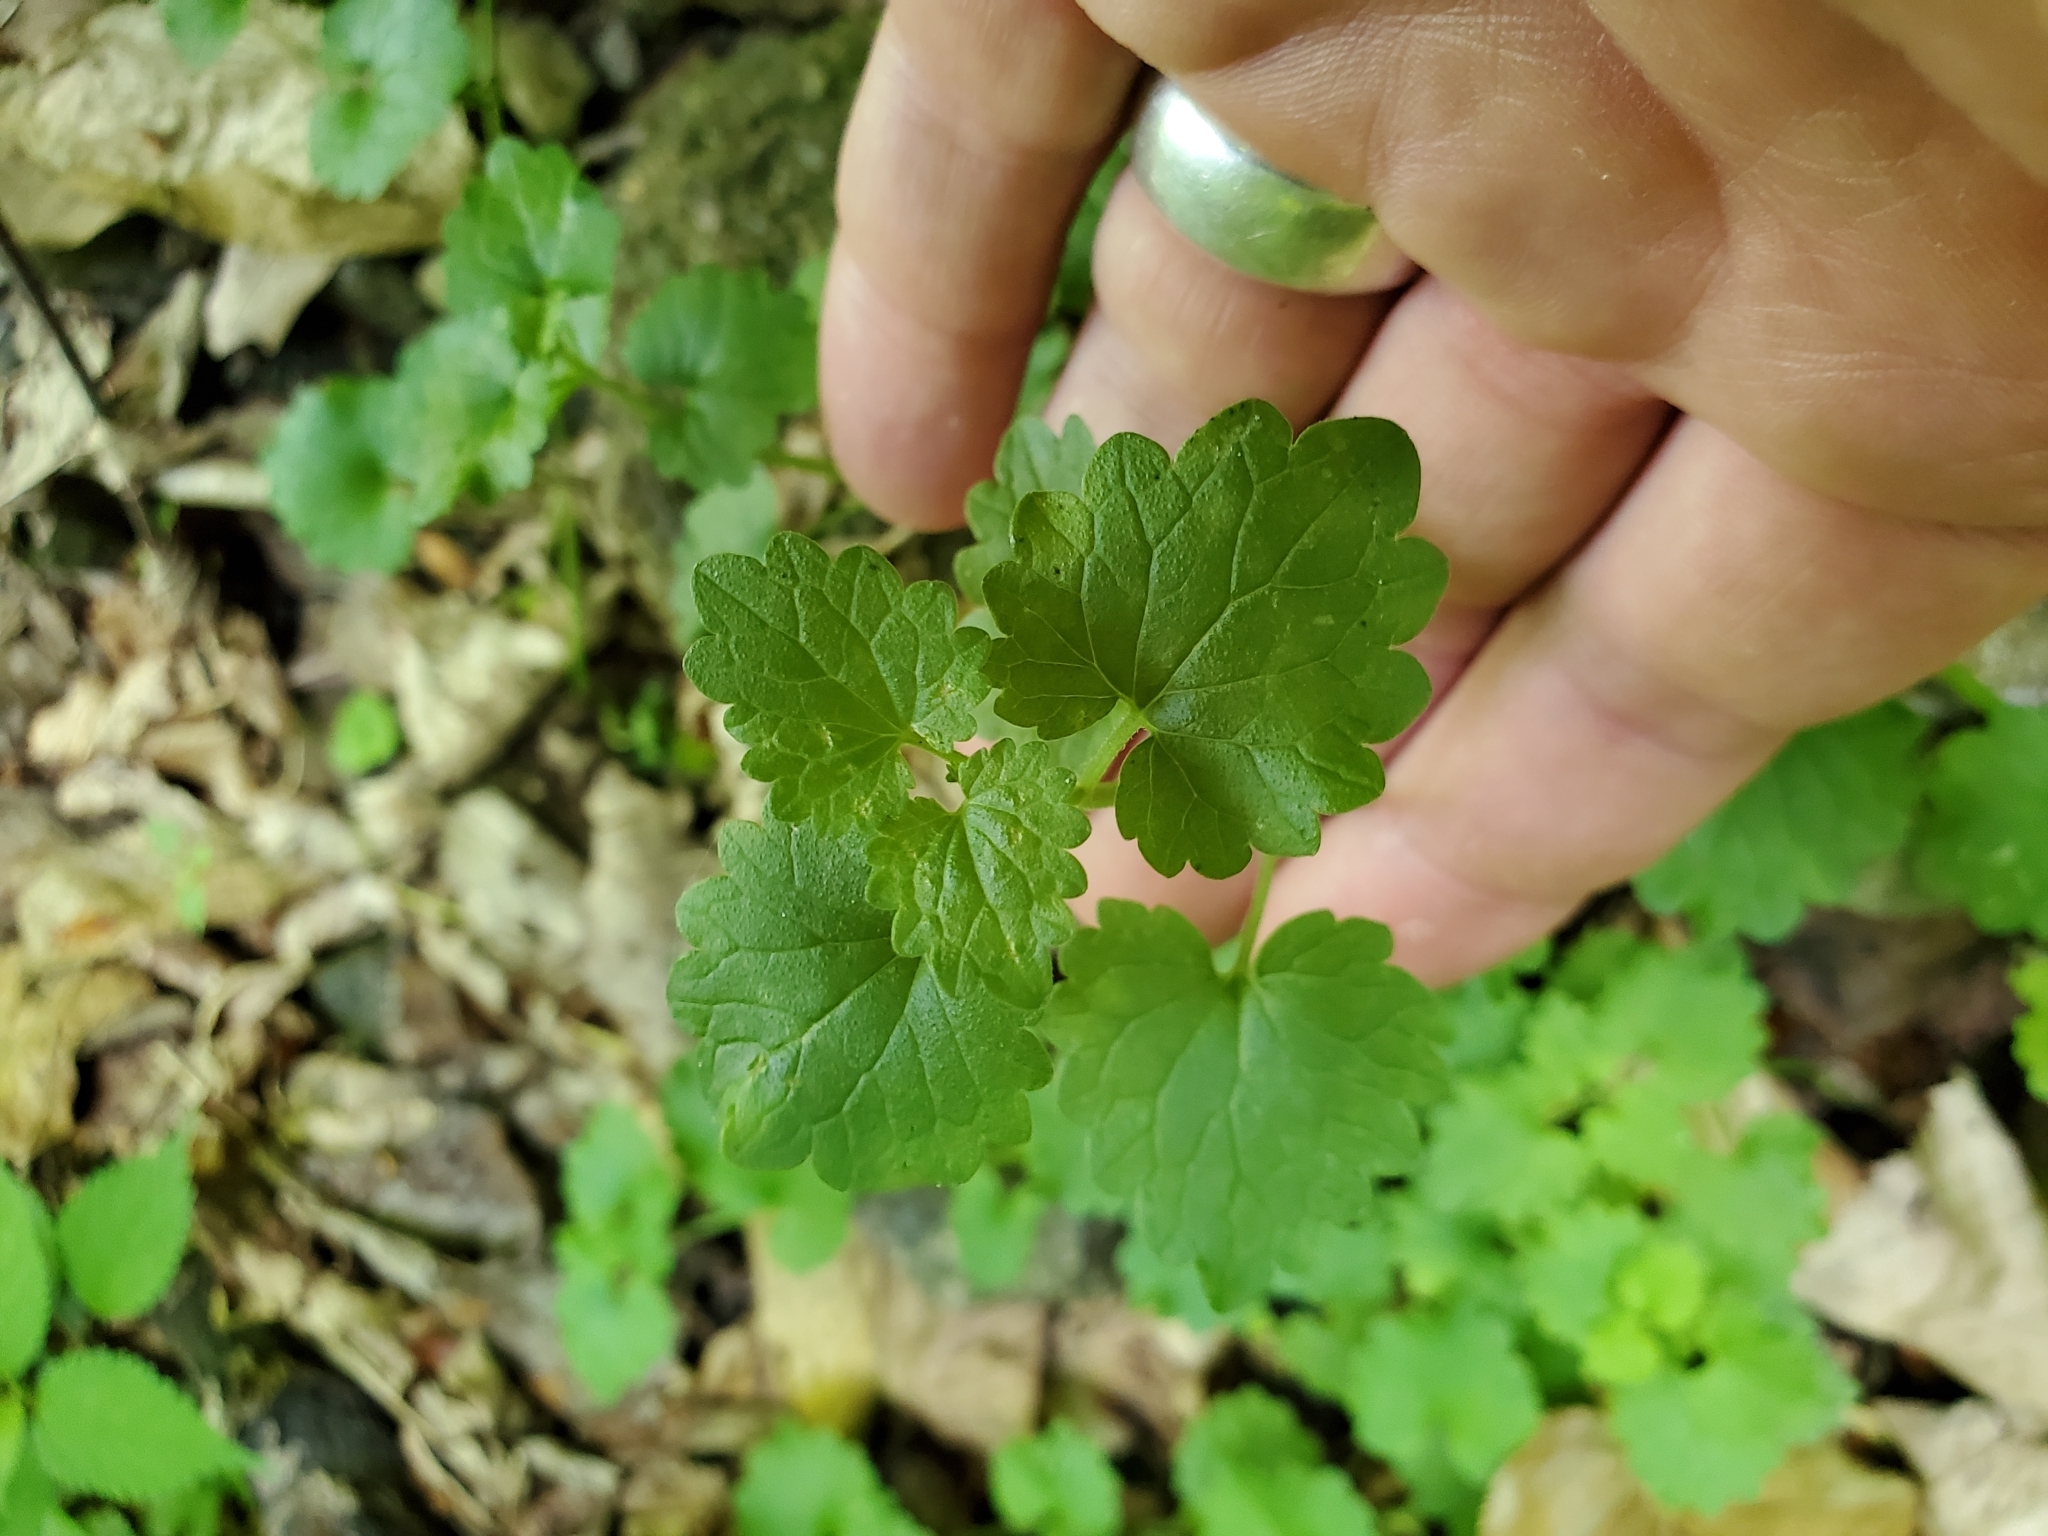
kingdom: Plantae
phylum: Tracheophyta
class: Magnoliopsida
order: Lamiales
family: Lamiaceae
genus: Glechoma
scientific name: Glechoma hederacea
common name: Ground ivy
